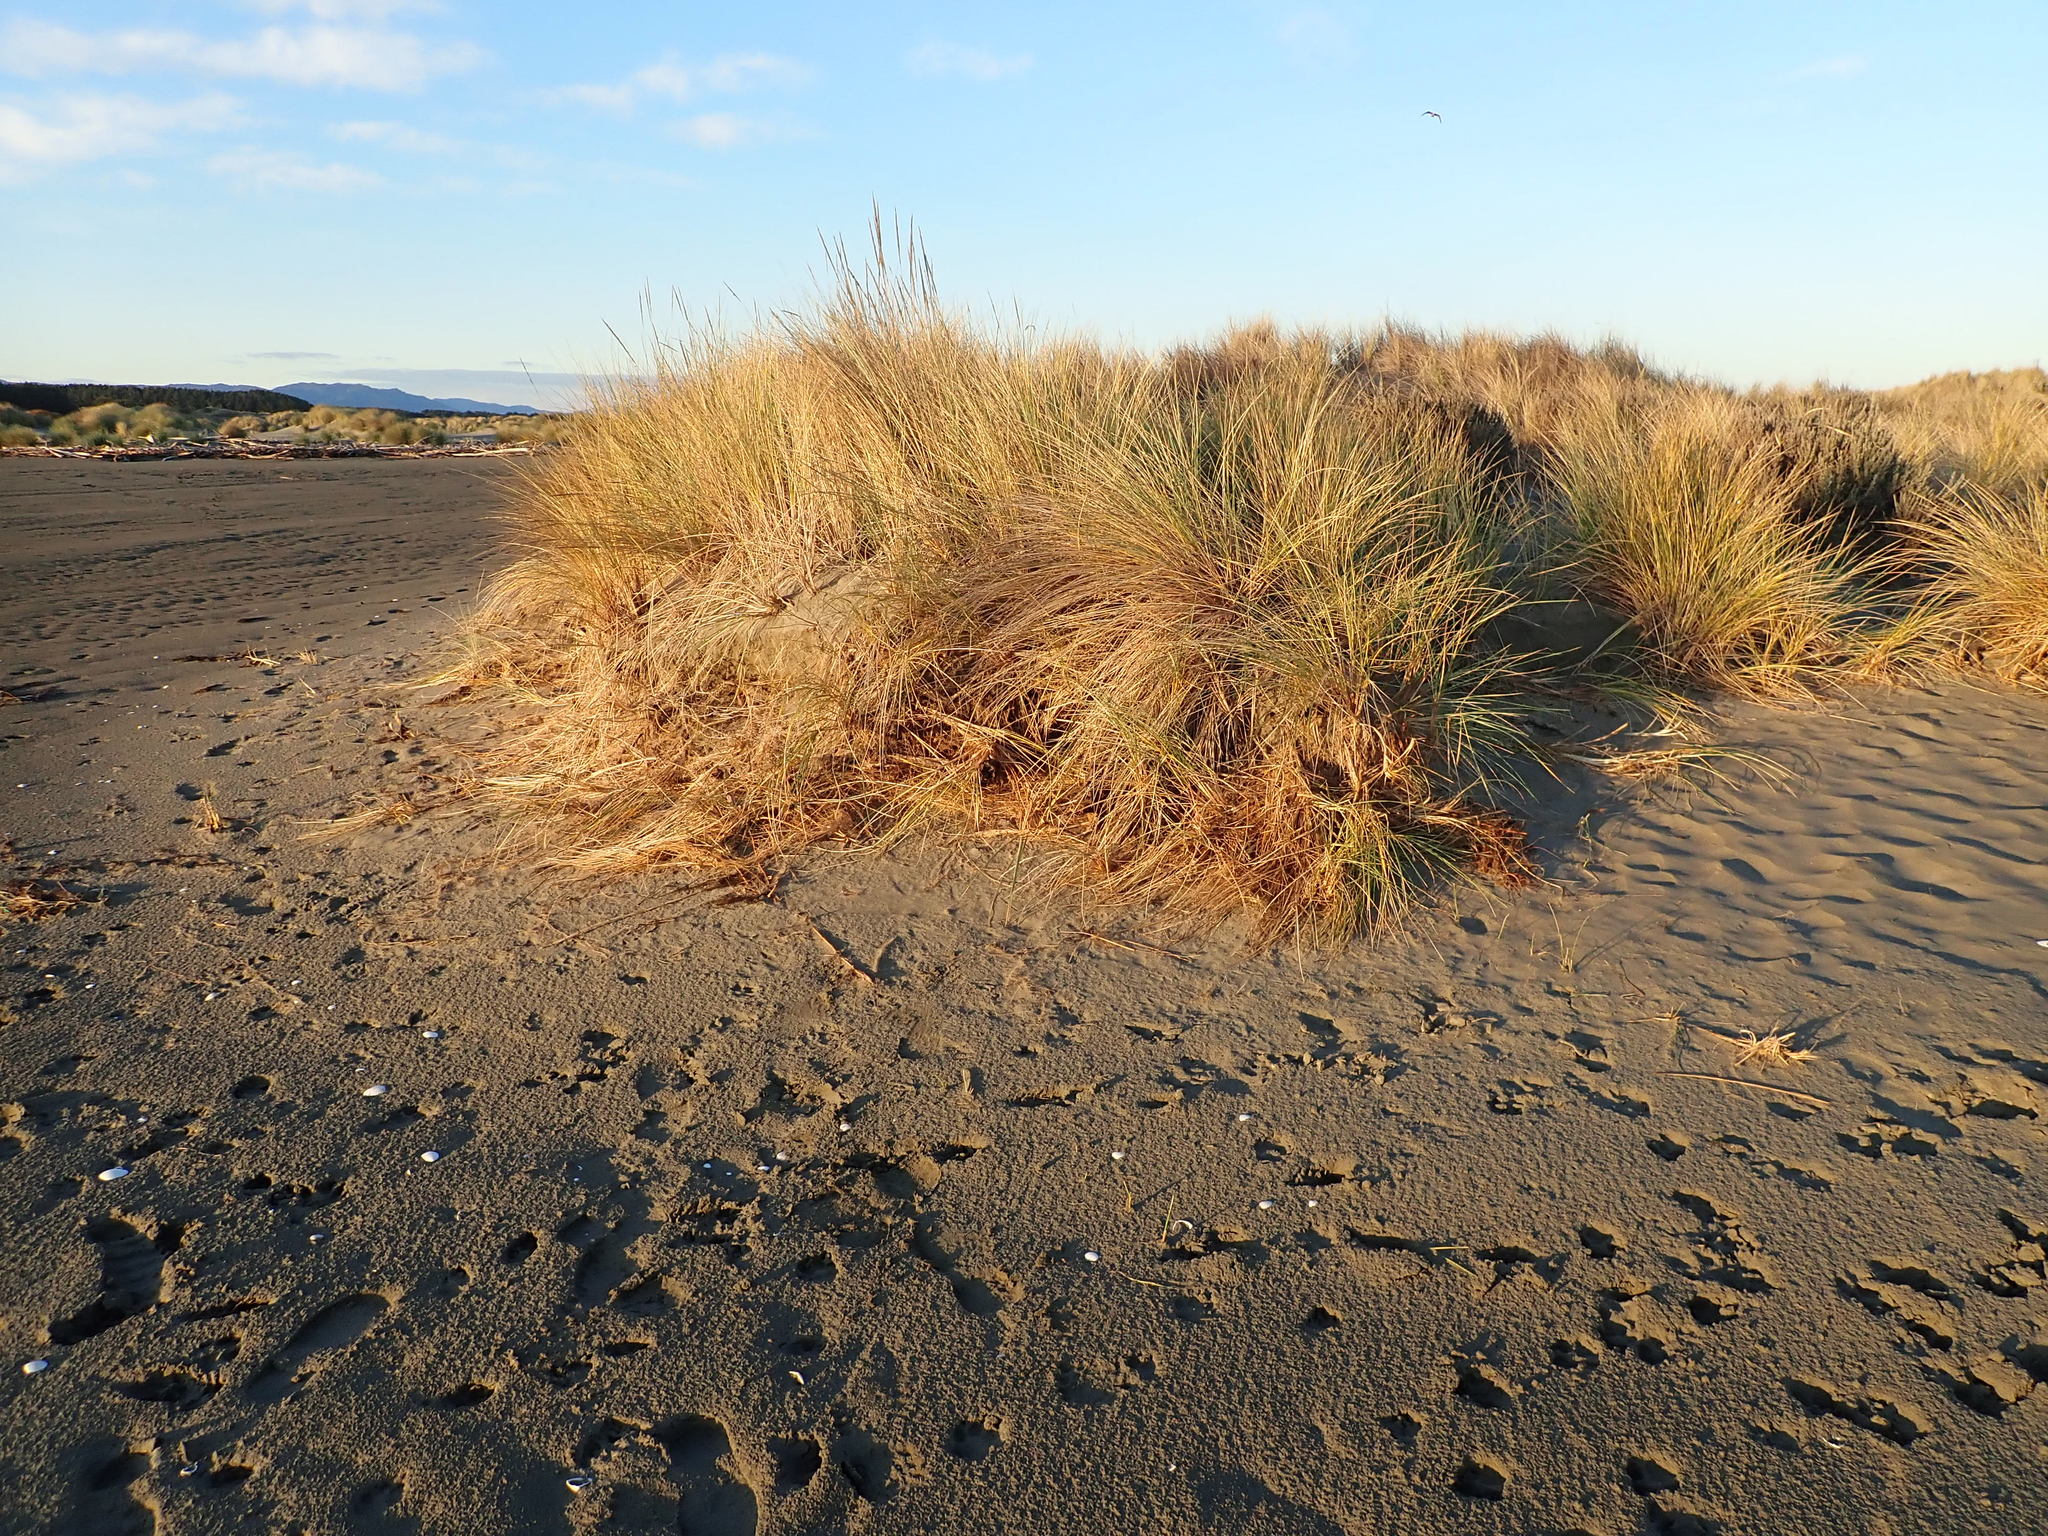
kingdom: Plantae
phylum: Tracheophyta
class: Liliopsida
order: Poales
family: Poaceae
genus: Calamagrostis
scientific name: Calamagrostis arenaria
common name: European beachgrass
